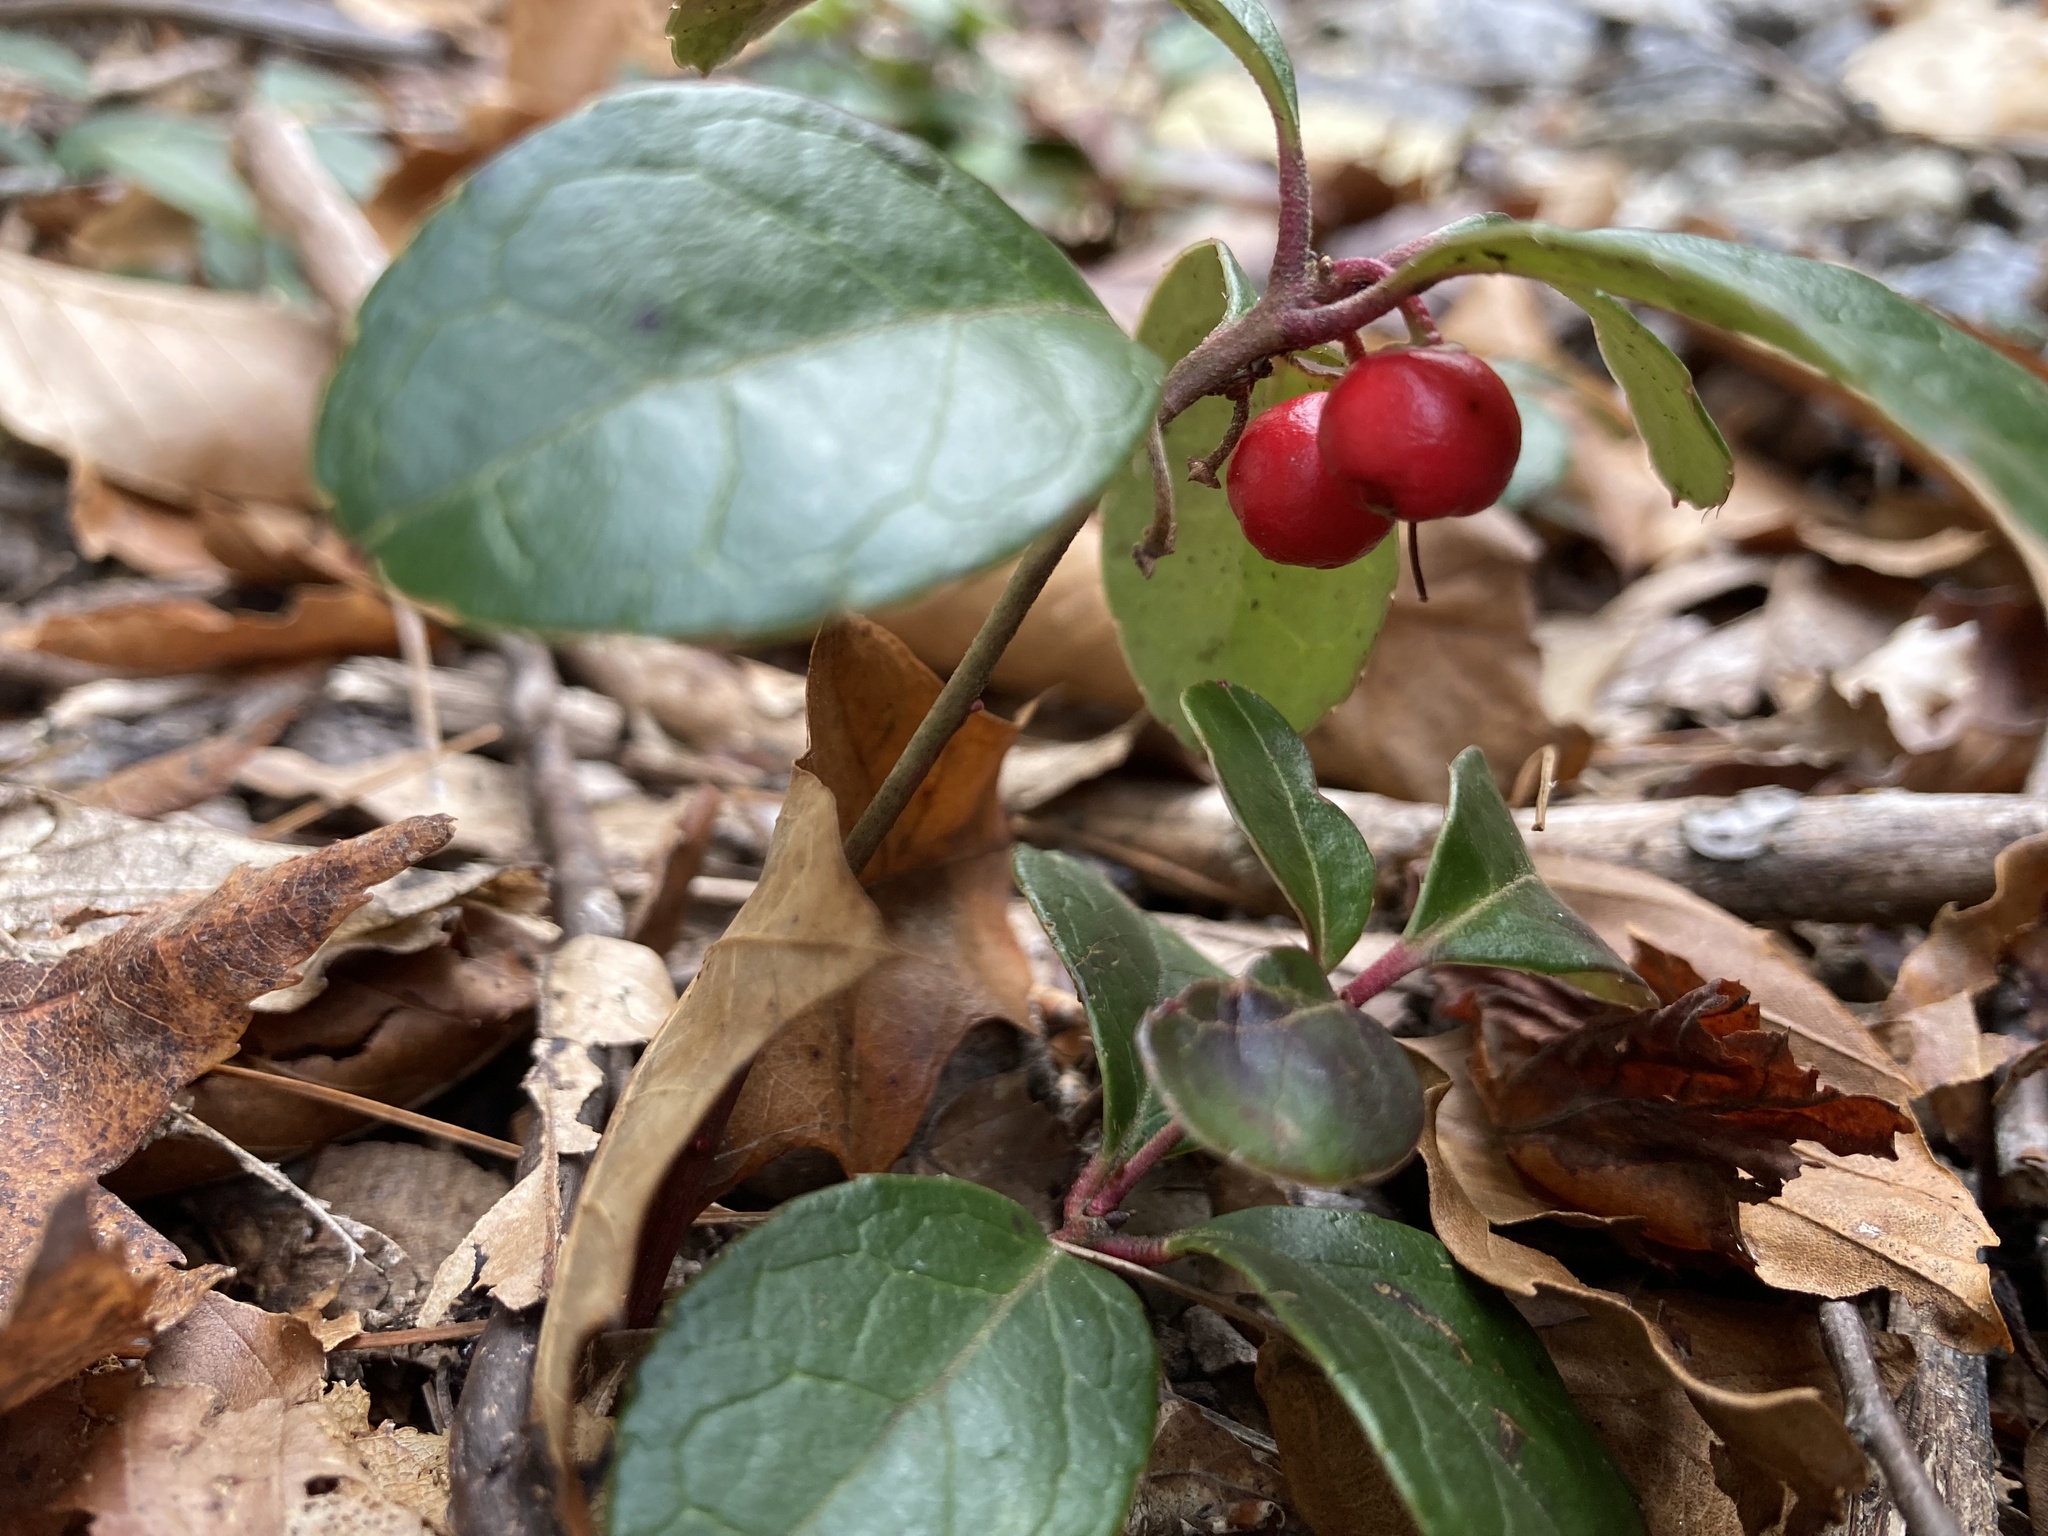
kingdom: Plantae
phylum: Tracheophyta
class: Magnoliopsida
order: Ericales
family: Ericaceae
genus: Gaultheria
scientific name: Gaultheria procumbens
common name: Checkerberry
